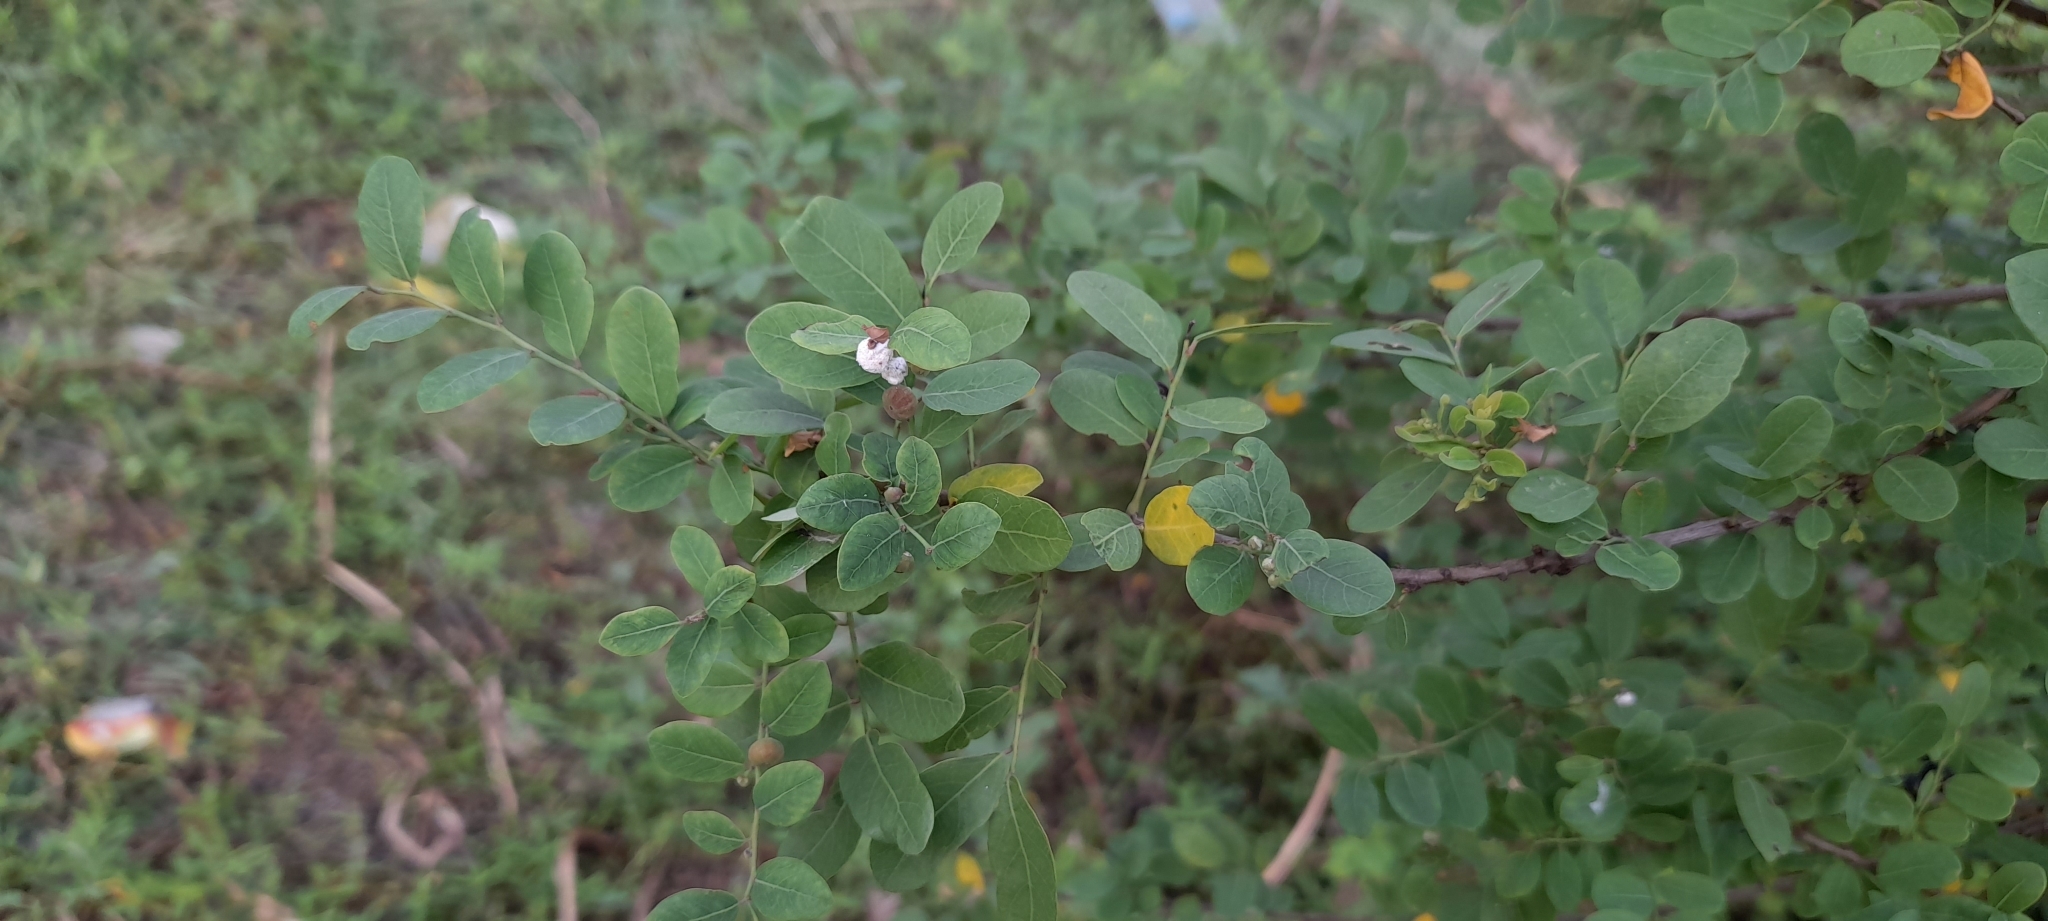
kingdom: Plantae
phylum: Tracheophyta
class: Magnoliopsida
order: Malpighiales
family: Phyllanthaceae
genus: Phyllanthus
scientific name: Phyllanthus reticulatus
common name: Potato bush
